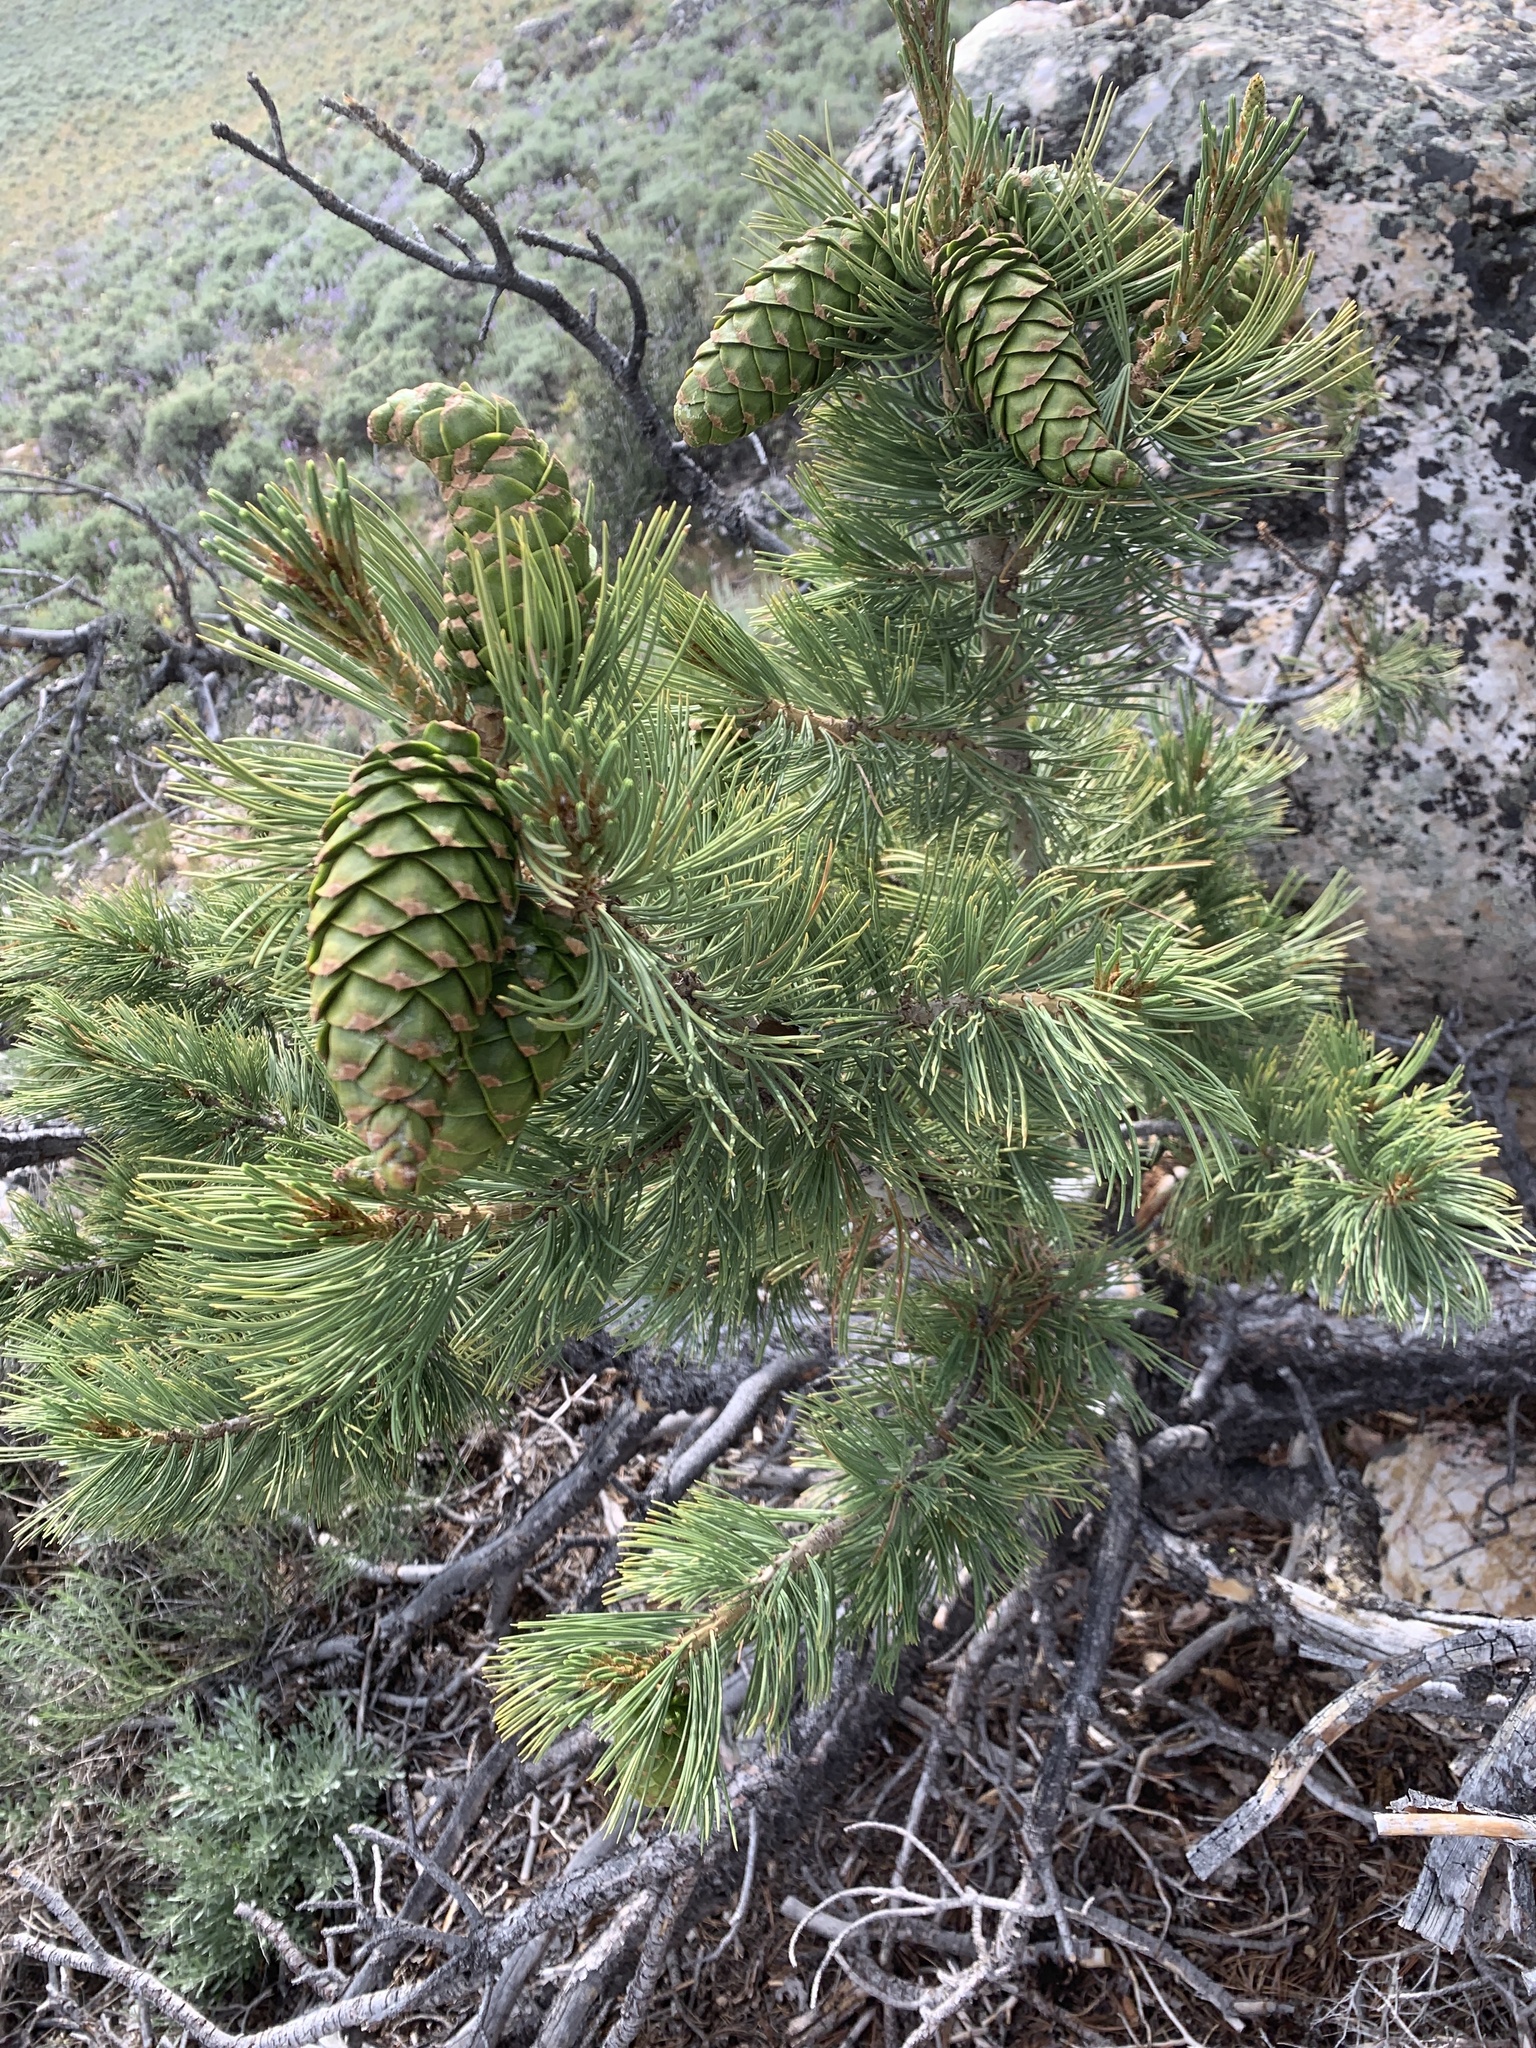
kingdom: Plantae
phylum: Tracheophyta
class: Pinopsida
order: Pinales
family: Pinaceae
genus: Pinus
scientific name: Pinus flexilis
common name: Limber pine
